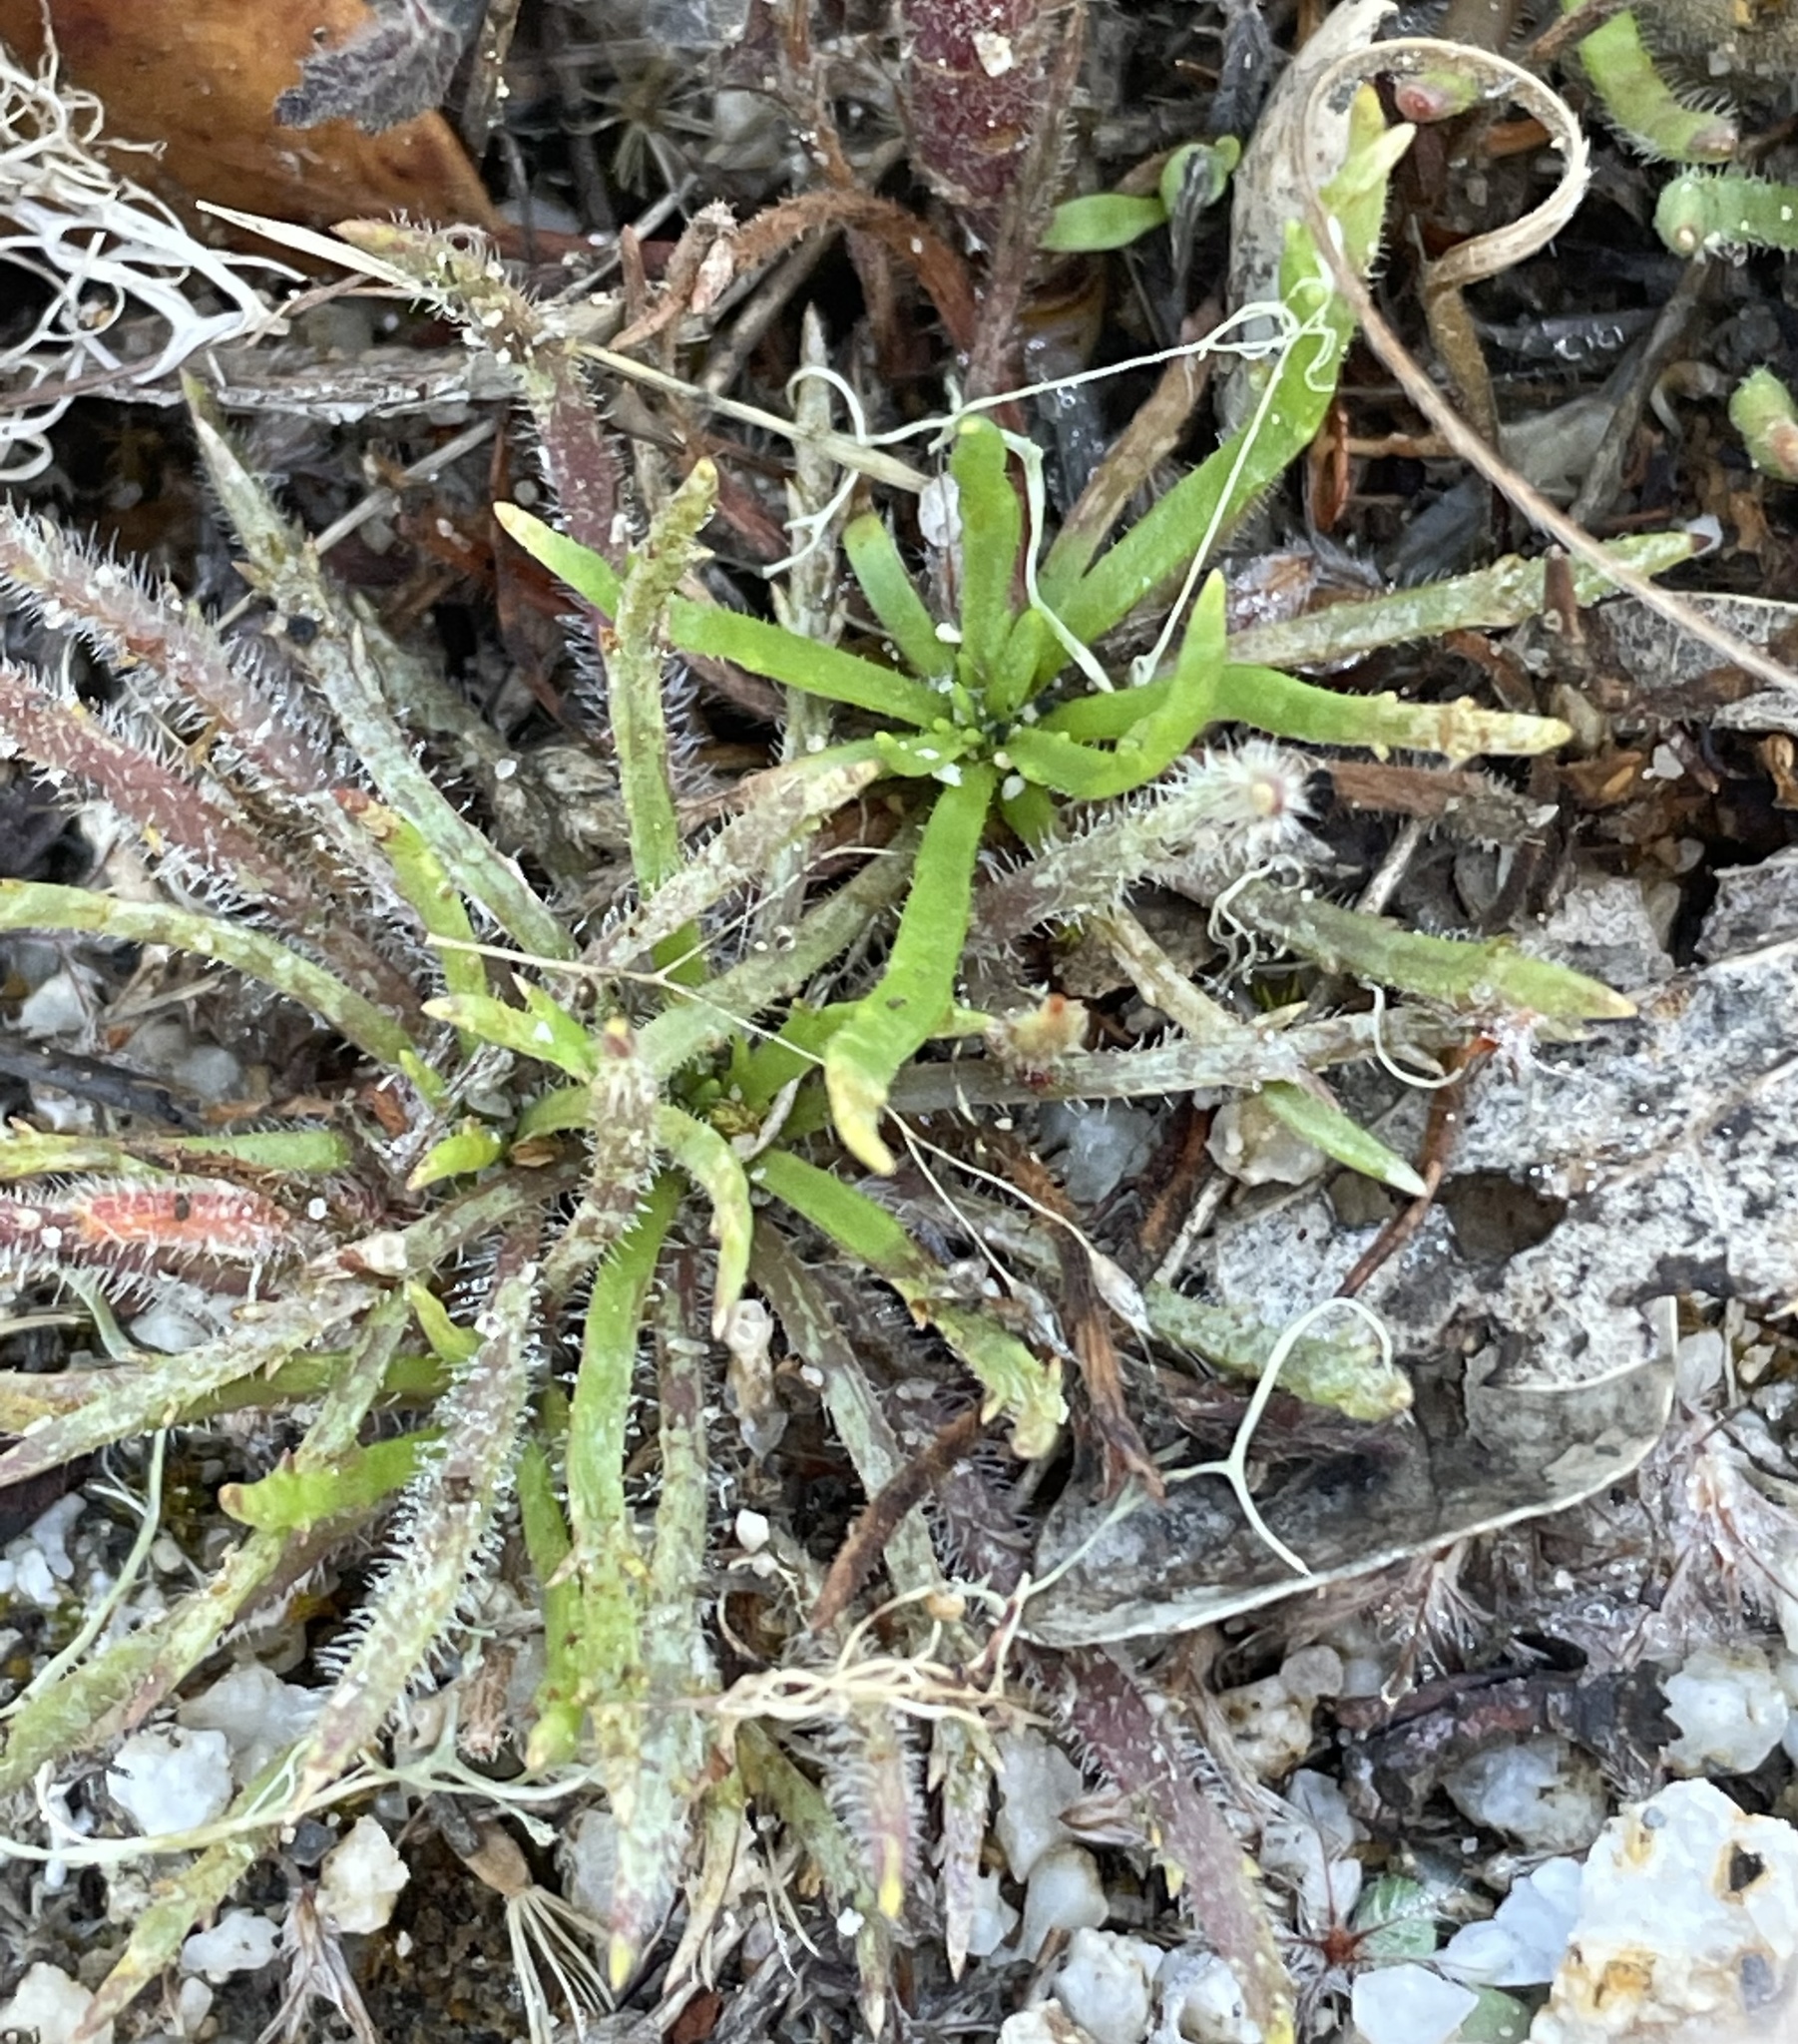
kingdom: Plantae
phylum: Tracheophyta
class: Magnoliopsida
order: Lamiales
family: Plantaginaceae
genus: Plantago
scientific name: Plantago coronopus
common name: Buck's-horn plantain
